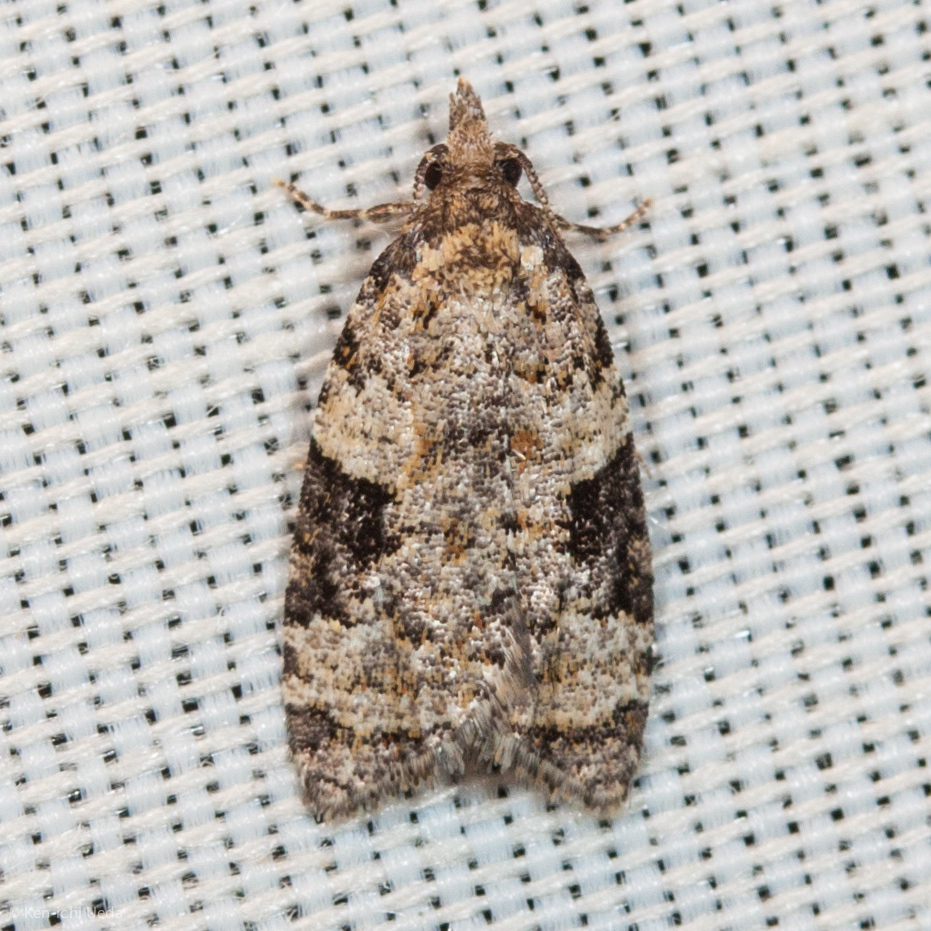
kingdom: Animalia
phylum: Arthropoda
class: Insecta
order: Lepidoptera
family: Tortricidae
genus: Anopina
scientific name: Anopina triangulana
